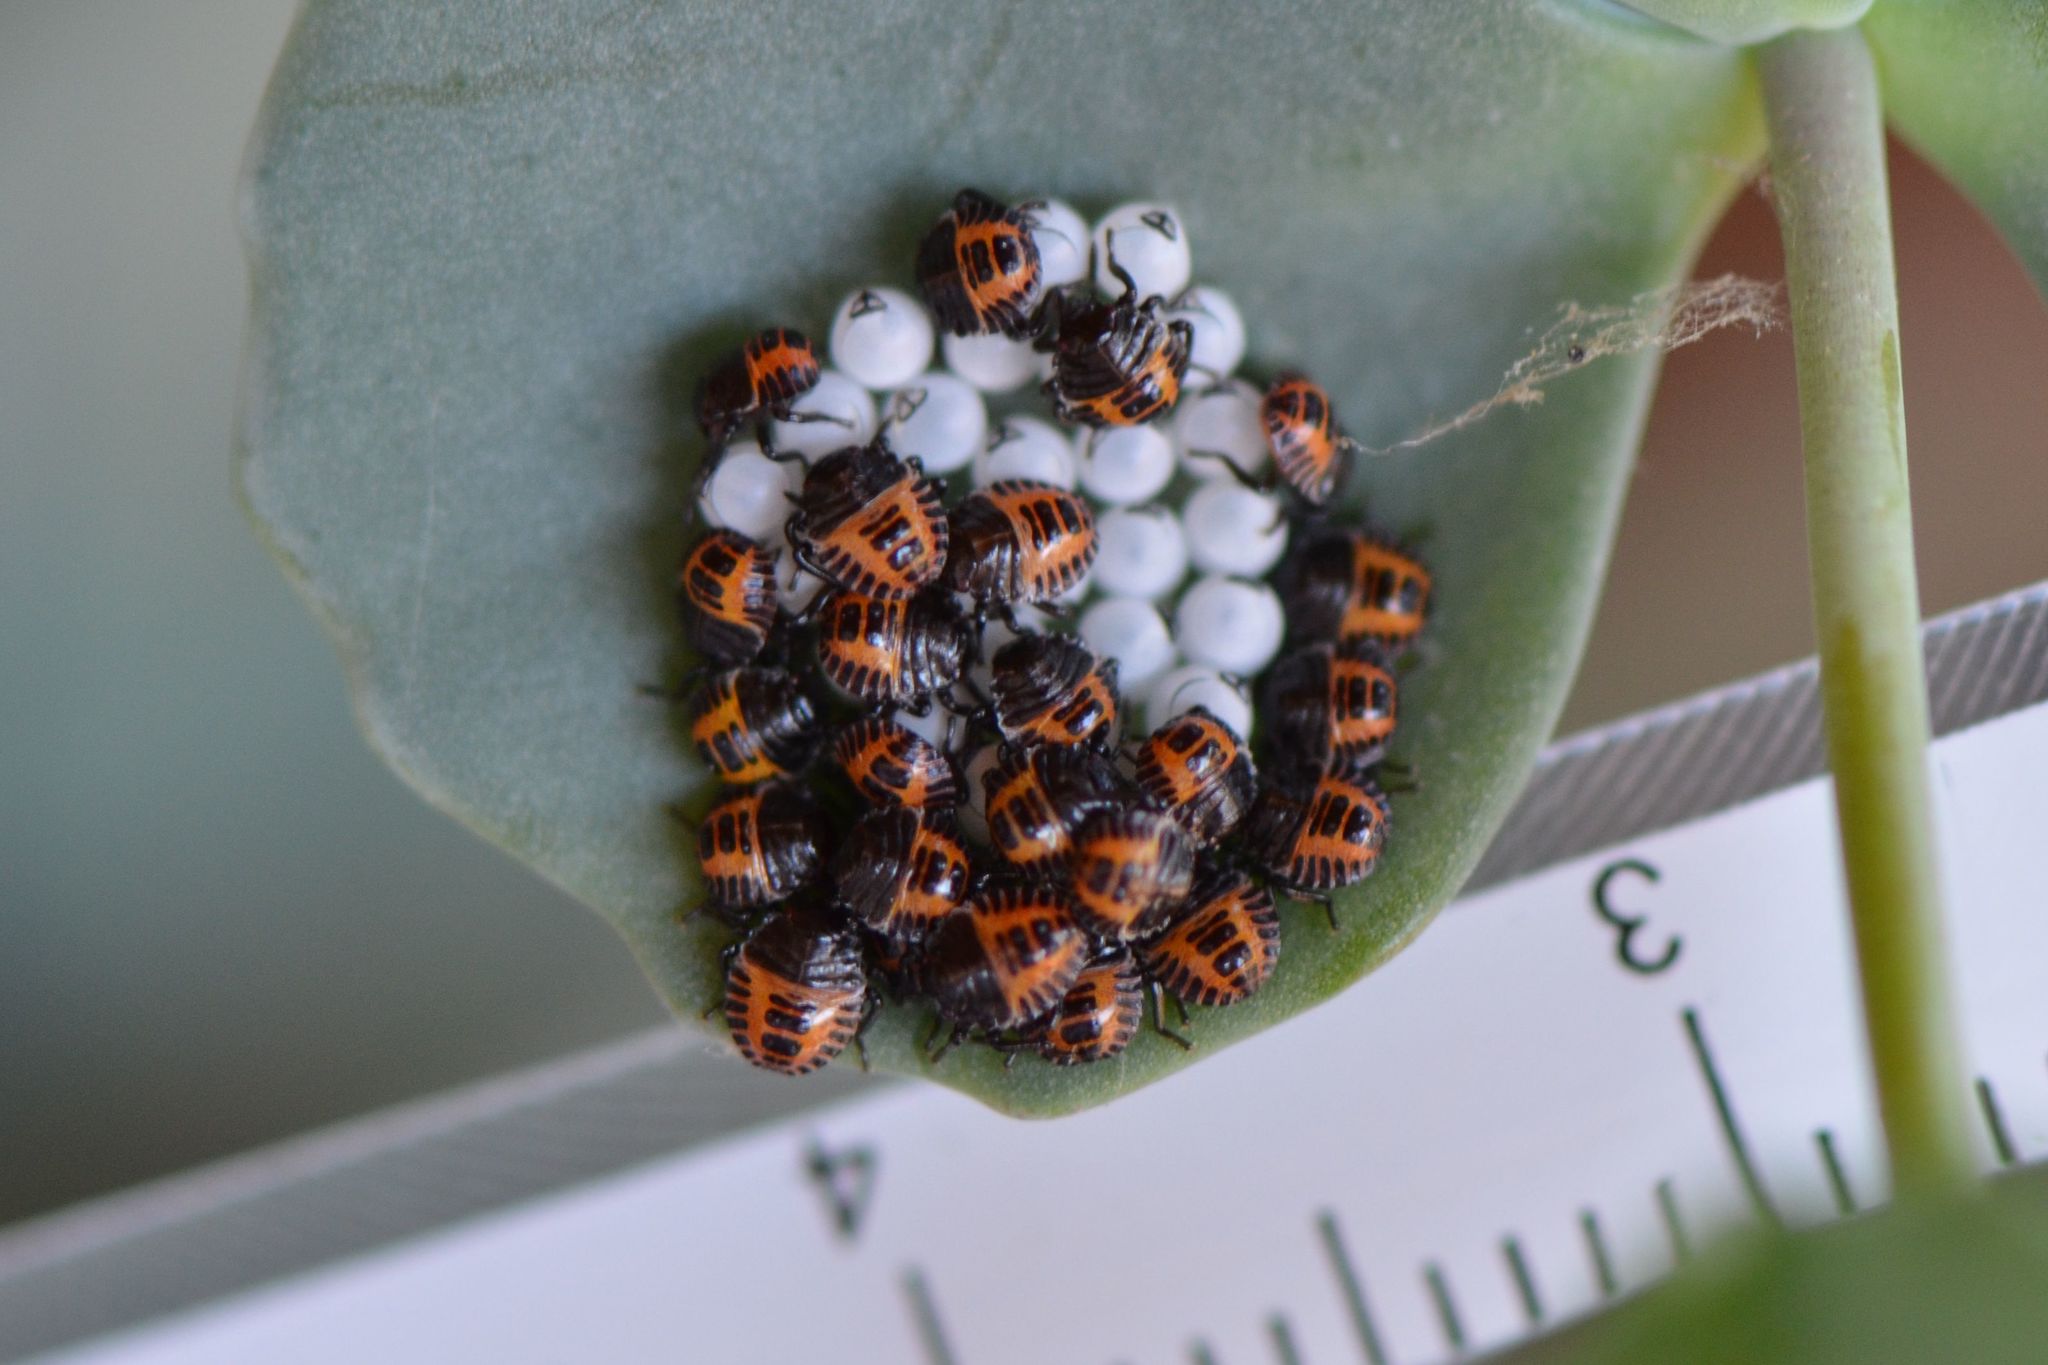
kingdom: Animalia
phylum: Arthropoda
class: Insecta
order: Hemiptera
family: Pentatomidae
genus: Halyomorpha
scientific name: Halyomorpha halys
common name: Brown marmorated stink bug
